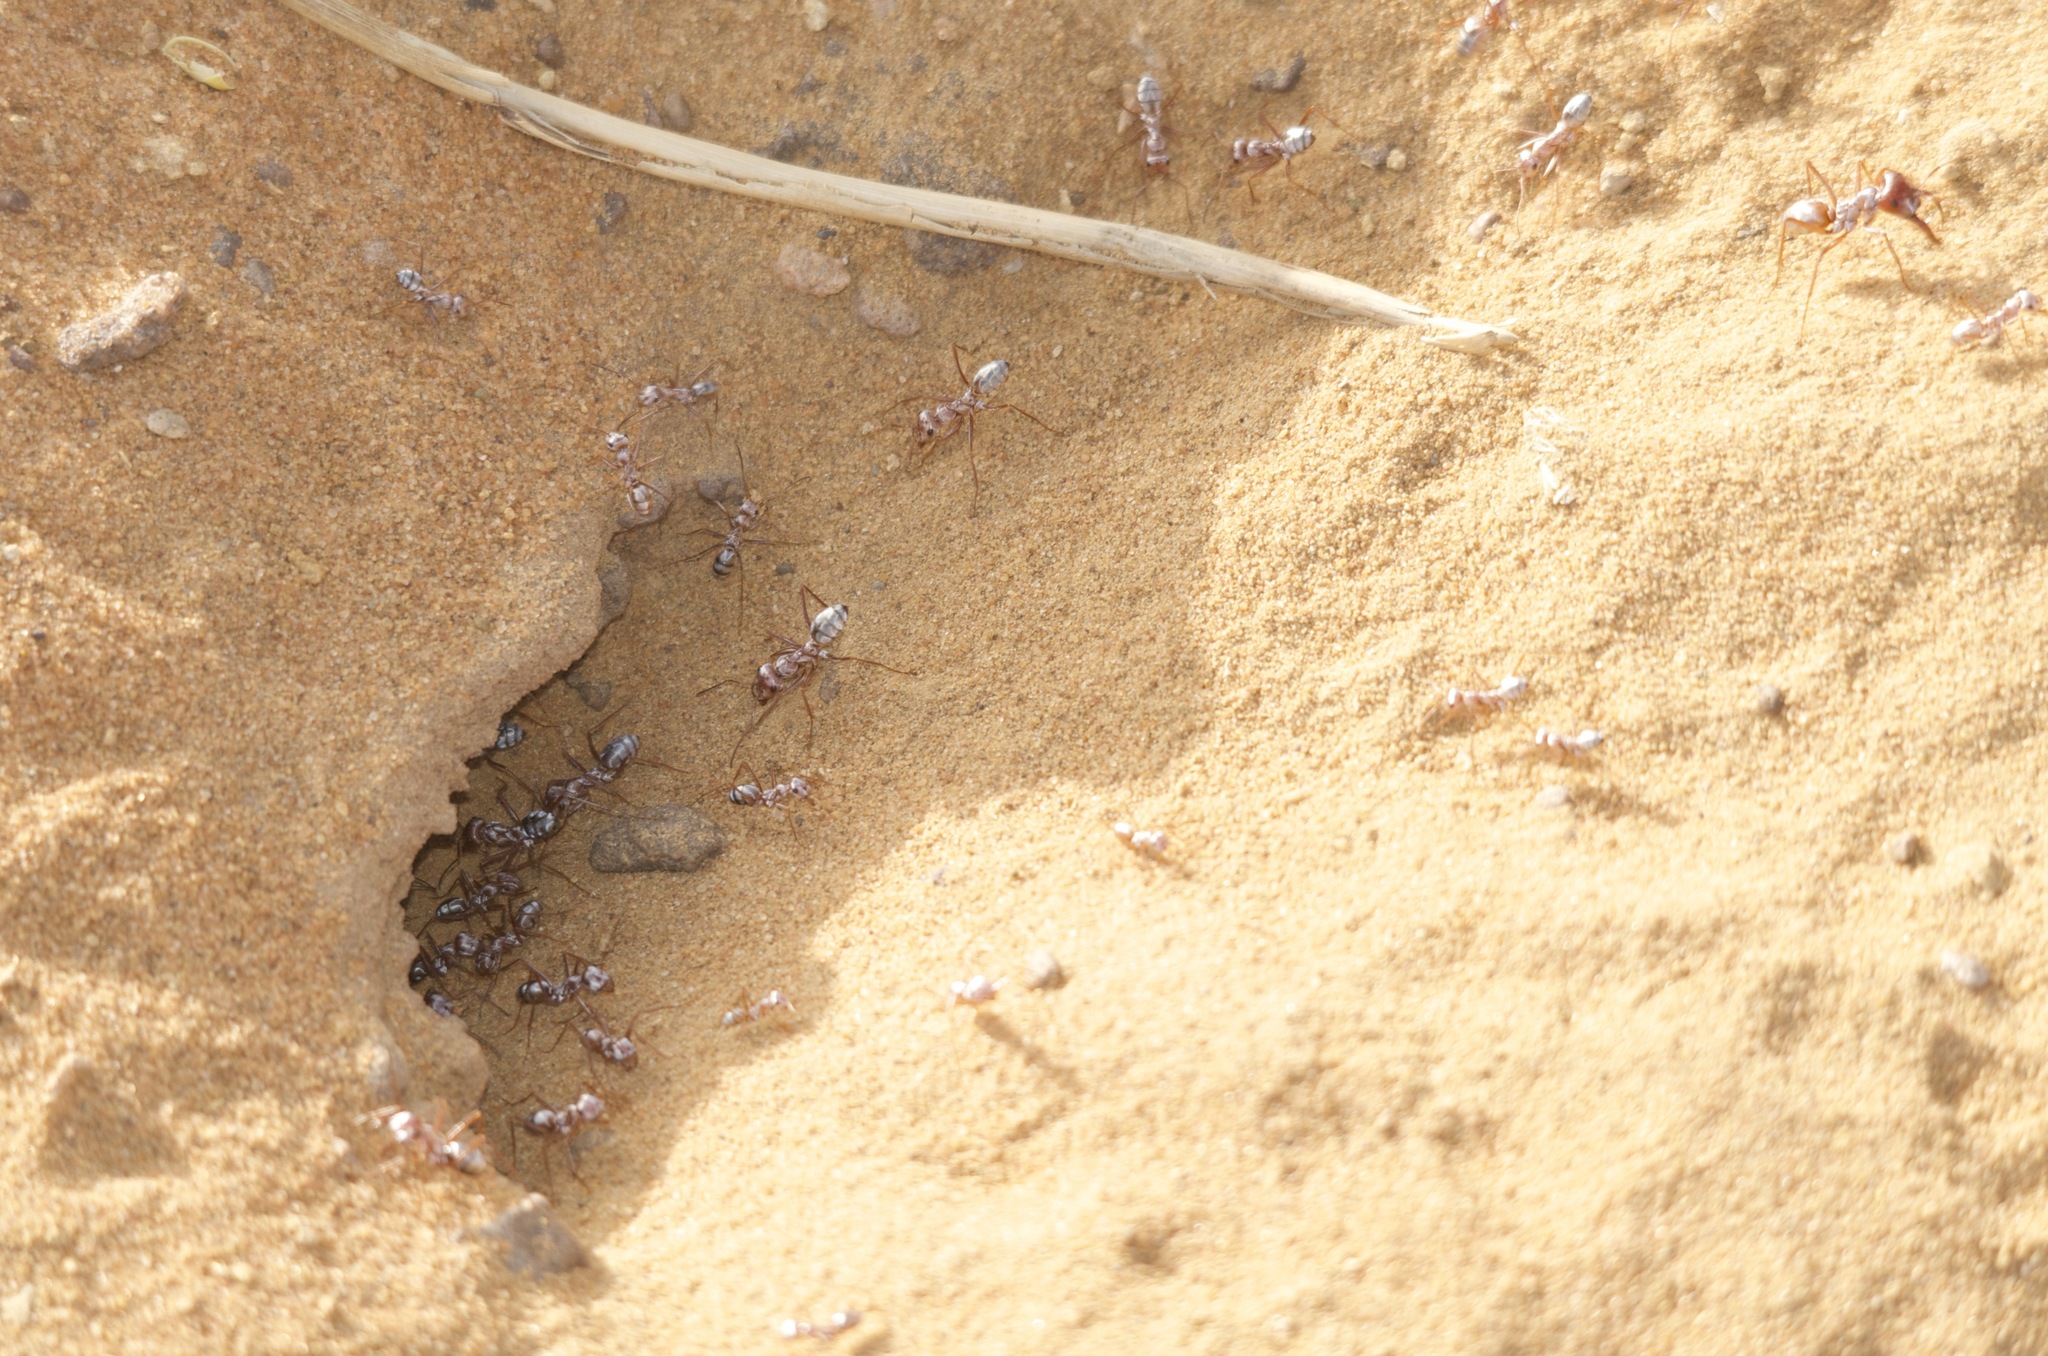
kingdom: Animalia
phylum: Arthropoda
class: Insecta
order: Hymenoptera
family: Formicidae
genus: Cataglyphis
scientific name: Cataglyphis bombycinus
